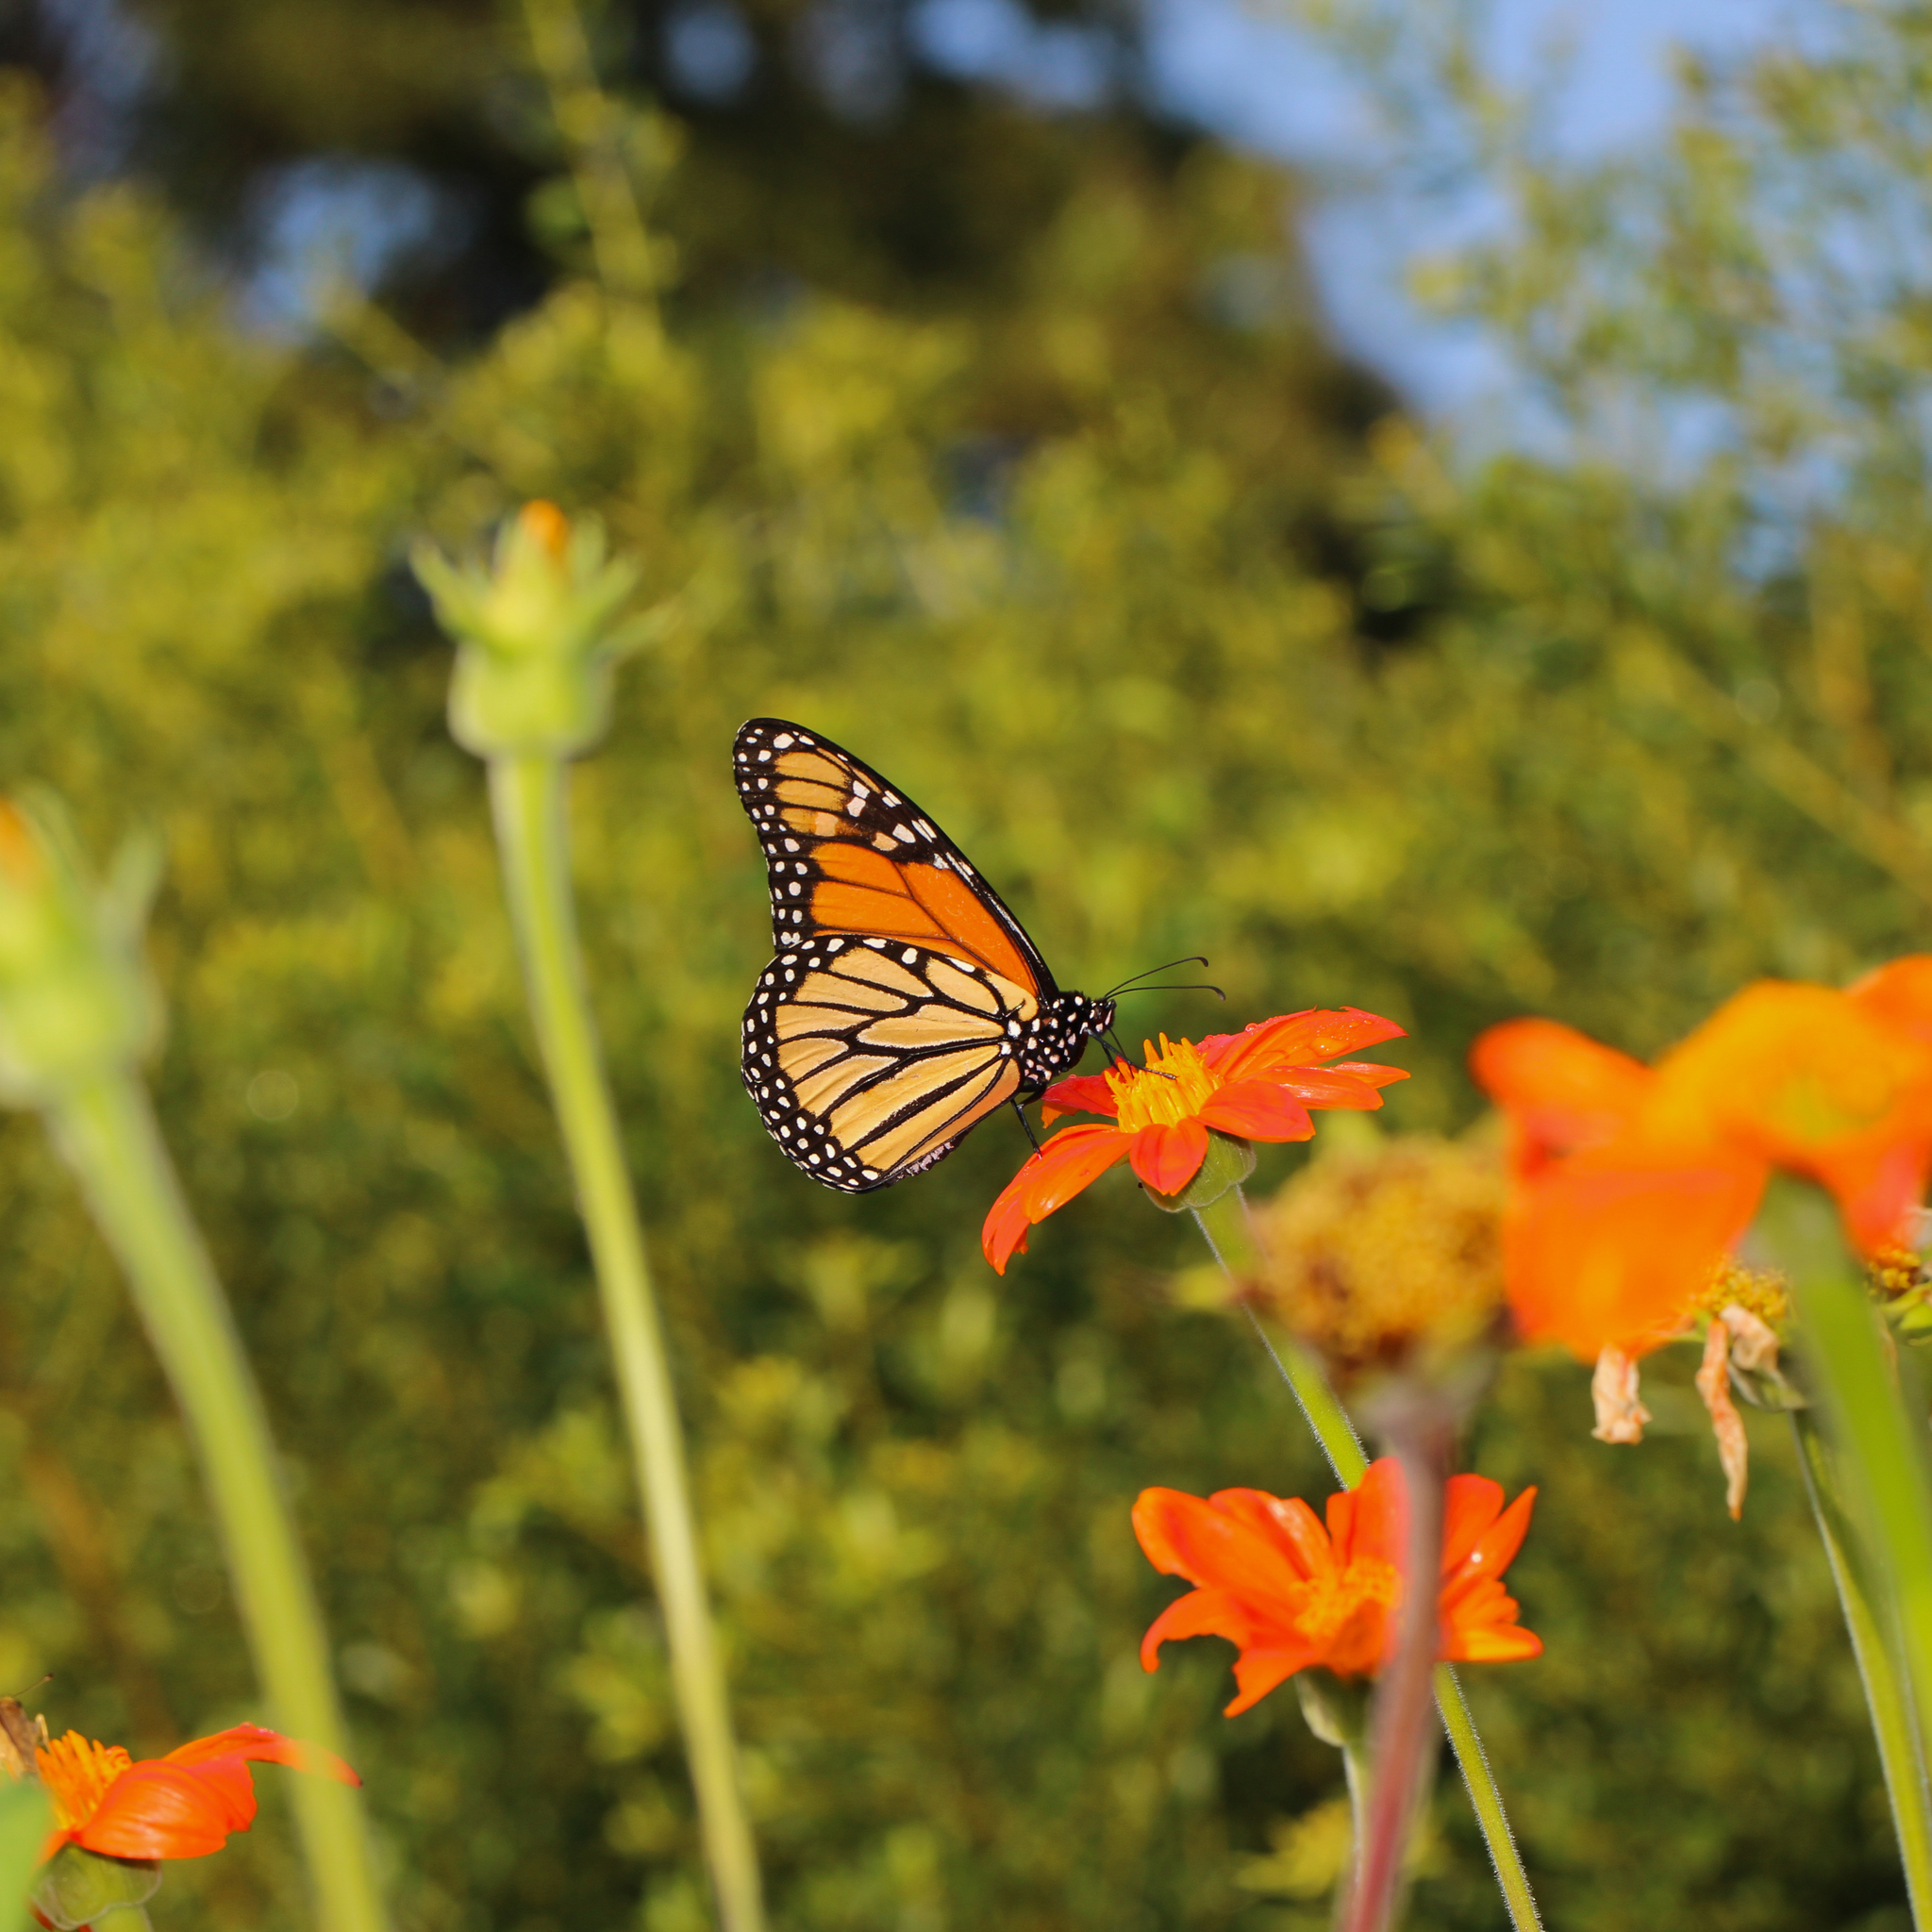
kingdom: Animalia
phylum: Arthropoda
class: Insecta
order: Lepidoptera
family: Nymphalidae
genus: Danaus
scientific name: Danaus plexippus
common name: Monarch
